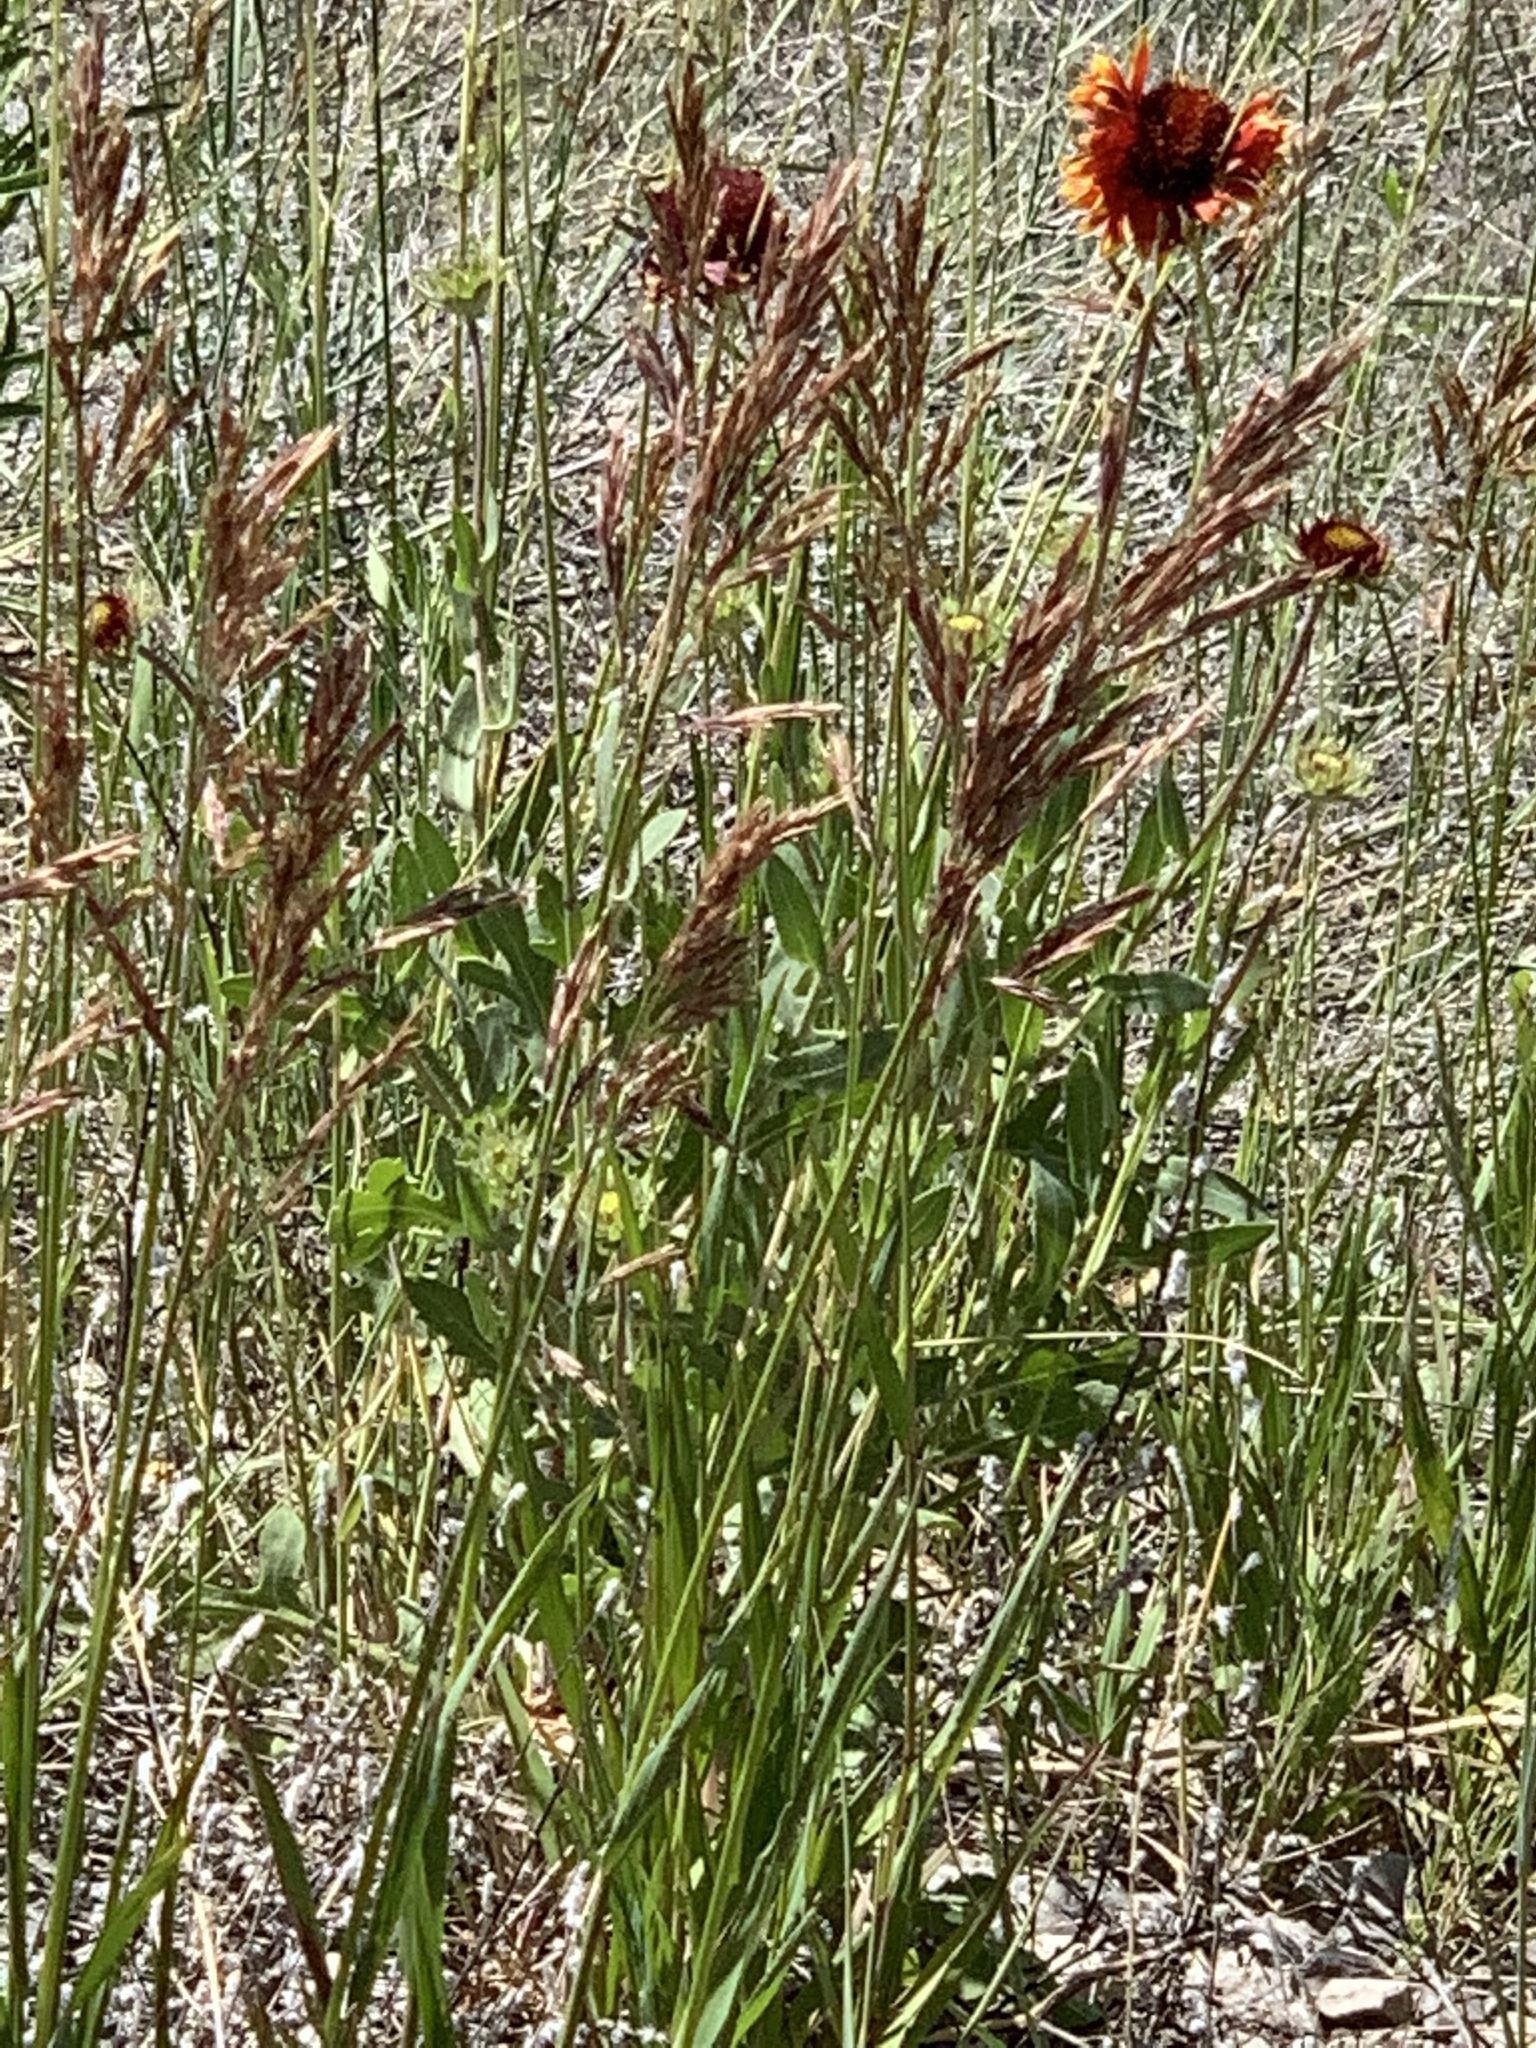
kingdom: Plantae
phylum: Tracheophyta
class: Liliopsida
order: Poales
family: Poaceae
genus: Bromus
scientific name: Bromus inermis
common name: Smooth brome
